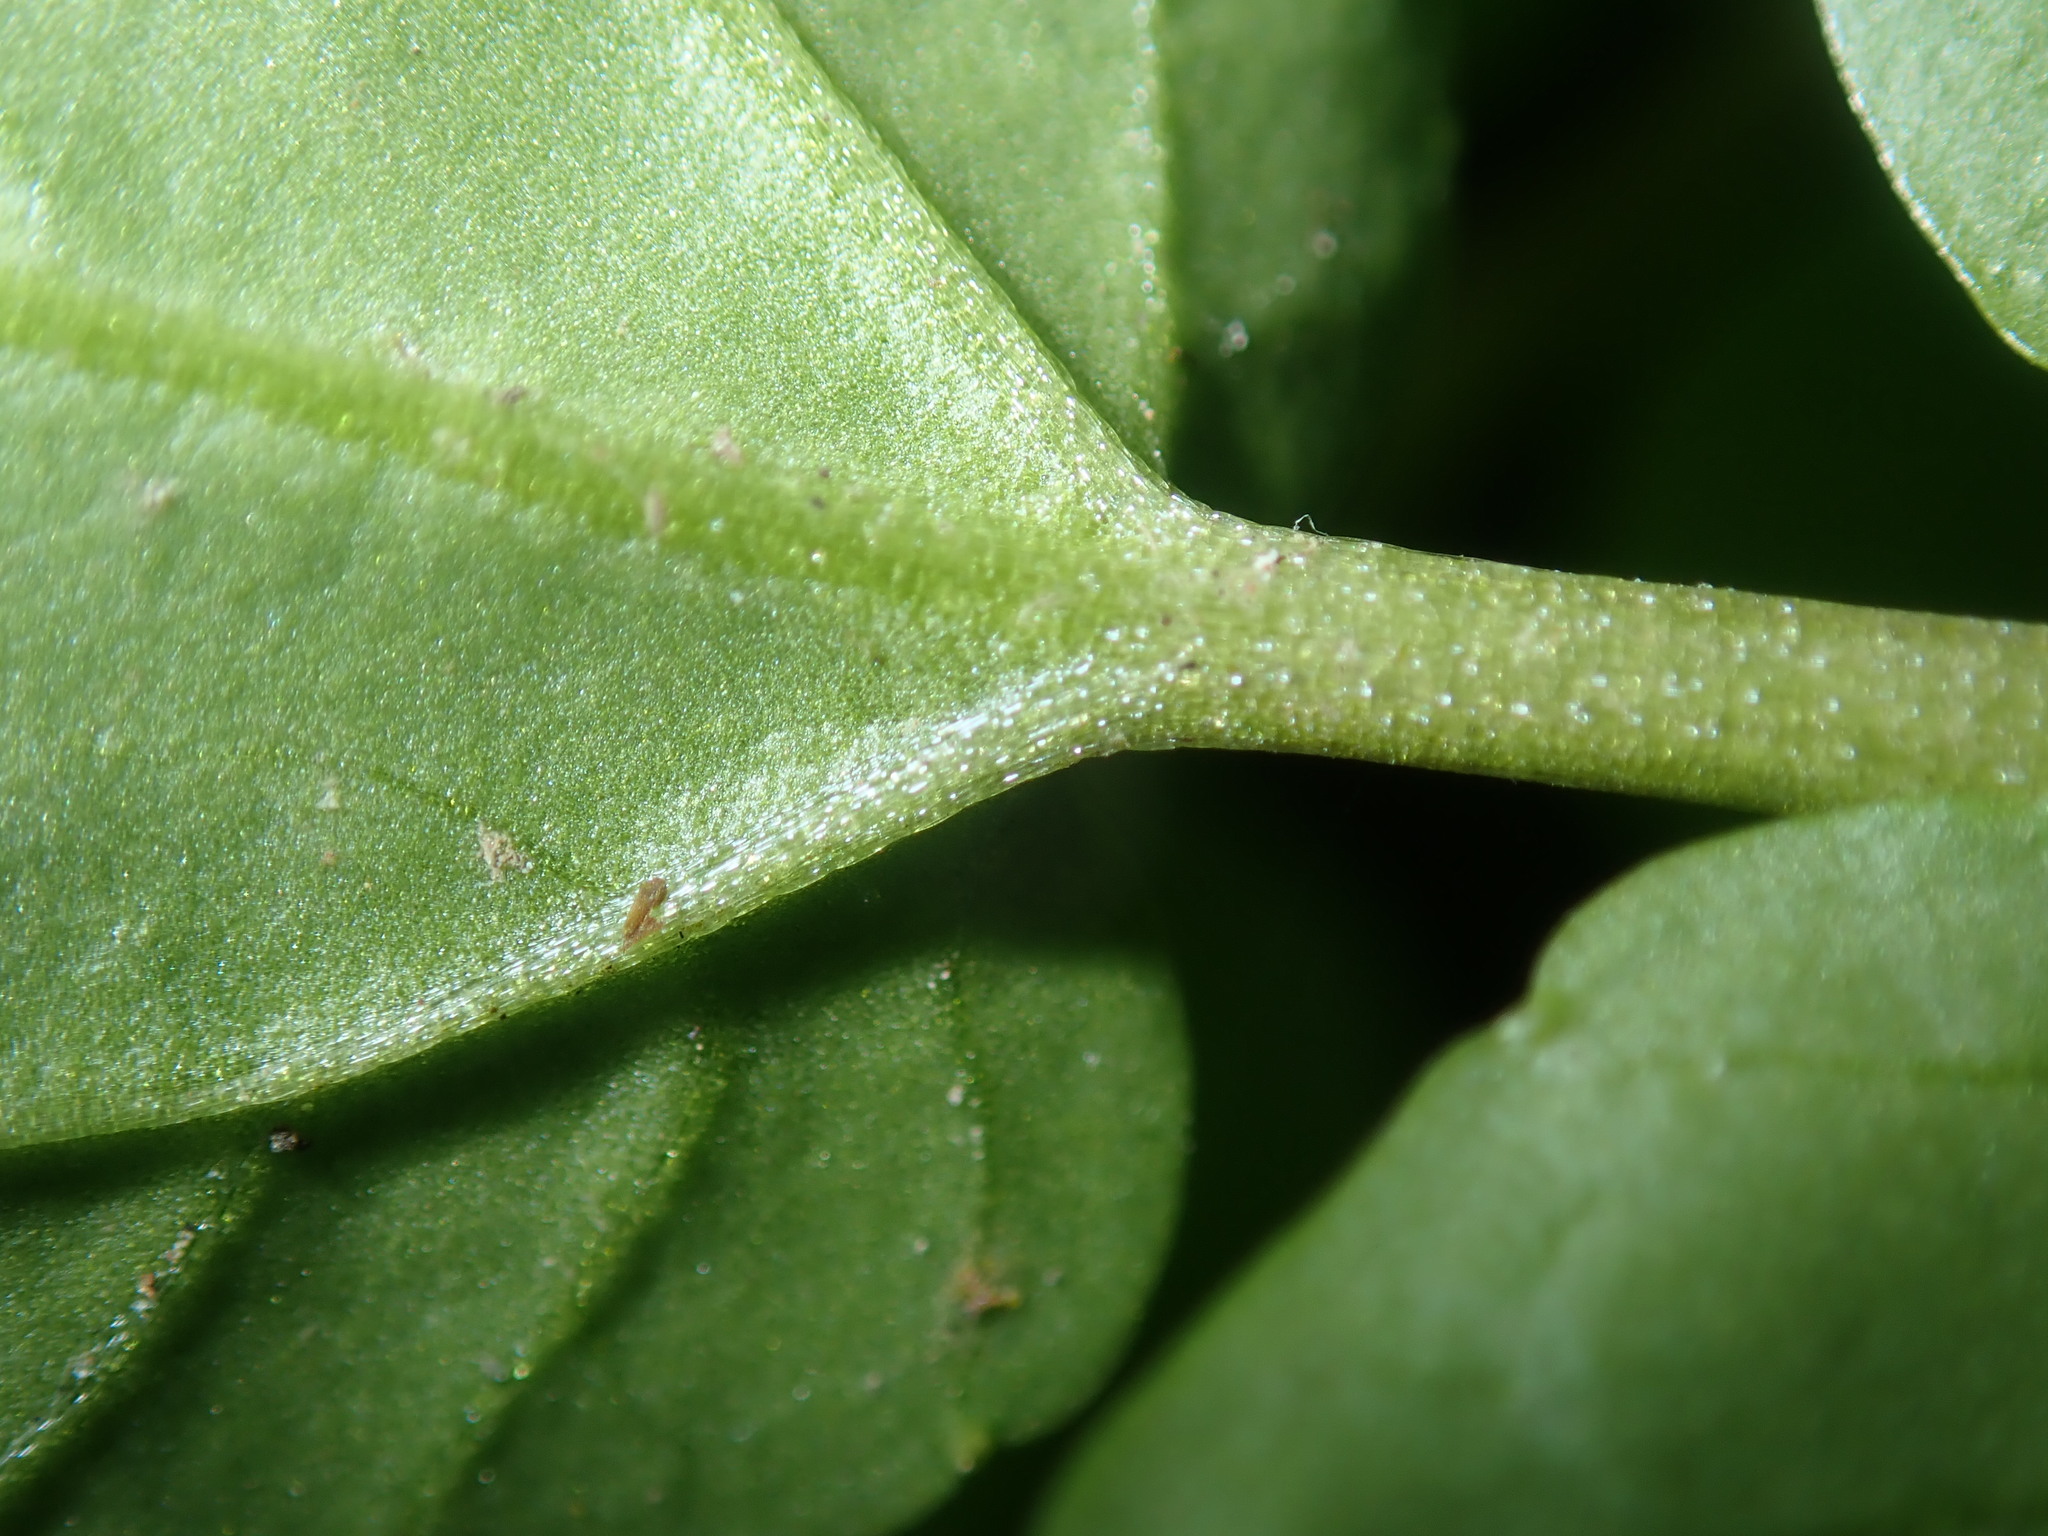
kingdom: Plantae
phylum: Tracheophyta
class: Magnoliopsida
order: Brassicales
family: Brassicaceae
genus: Nasturtium
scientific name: Nasturtium officinale
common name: Watercress
